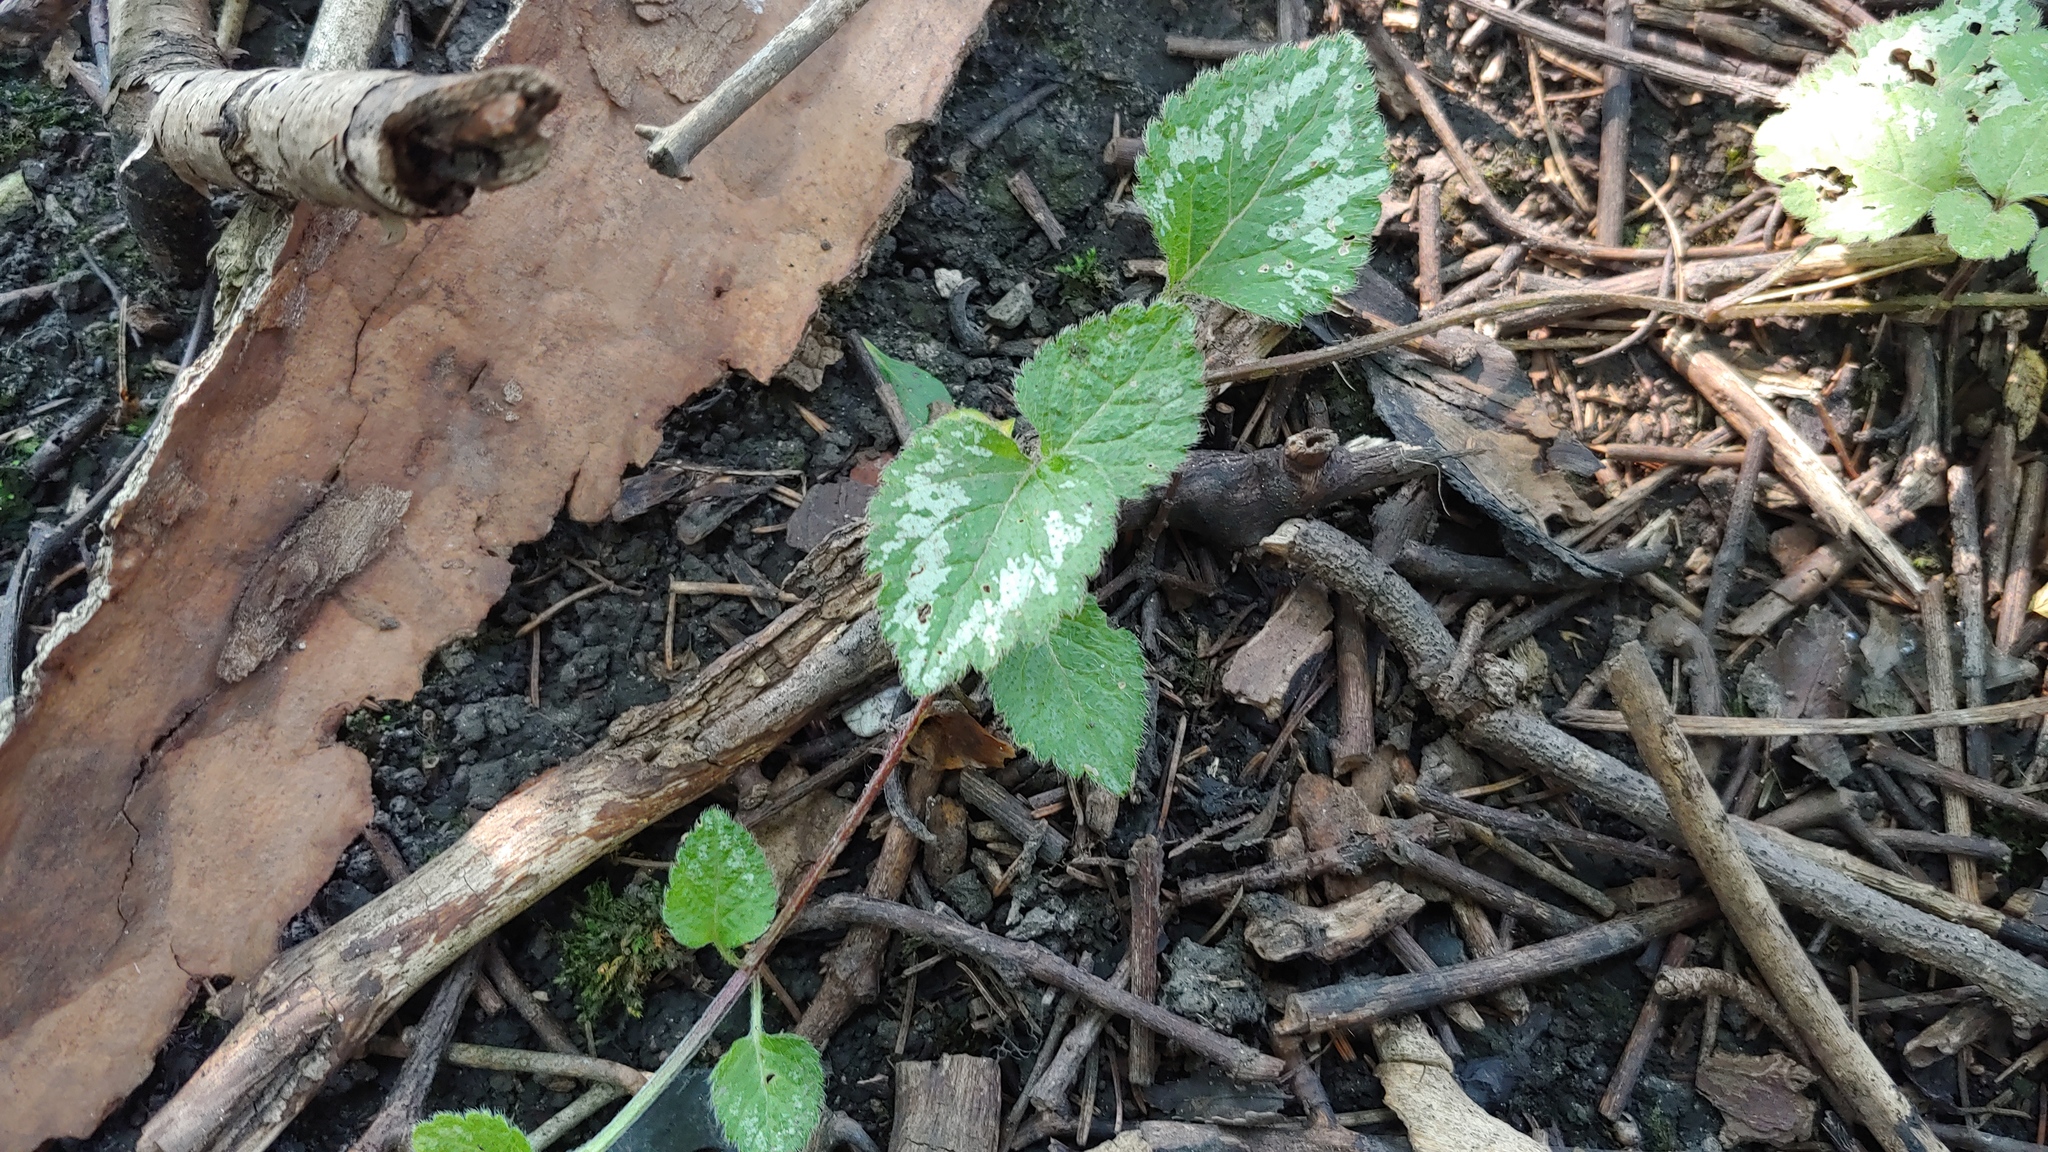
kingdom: Plantae
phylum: Tracheophyta
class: Magnoliopsida
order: Lamiales
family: Lamiaceae
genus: Lamium
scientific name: Lamium galeobdolon
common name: Yellow archangel
